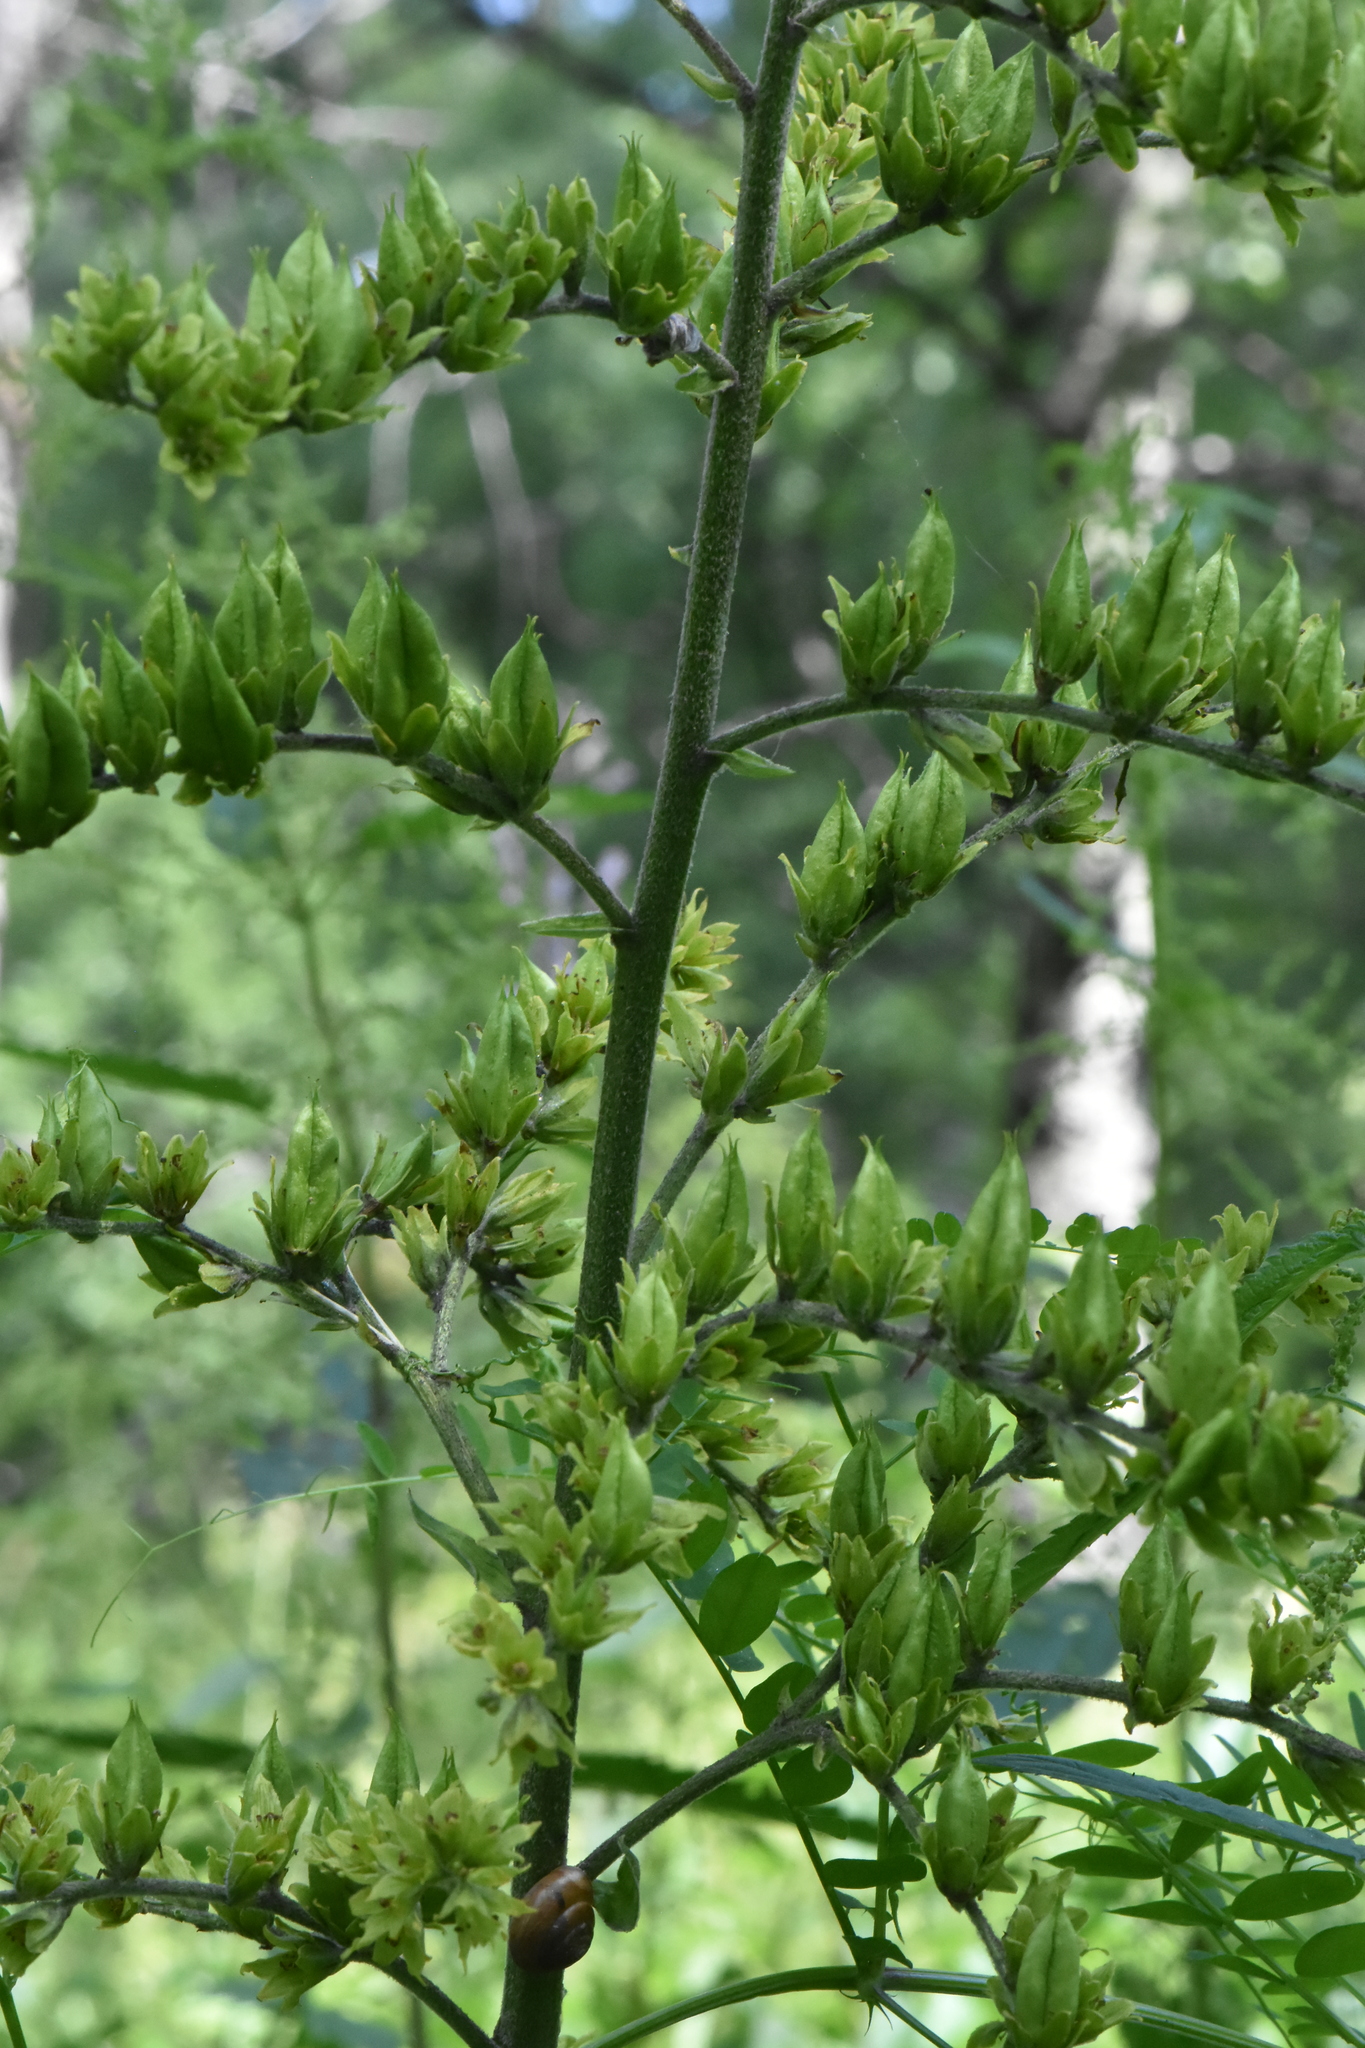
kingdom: Plantae
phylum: Tracheophyta
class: Liliopsida
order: Liliales
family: Melanthiaceae
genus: Veratrum
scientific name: Veratrum lobelianum
